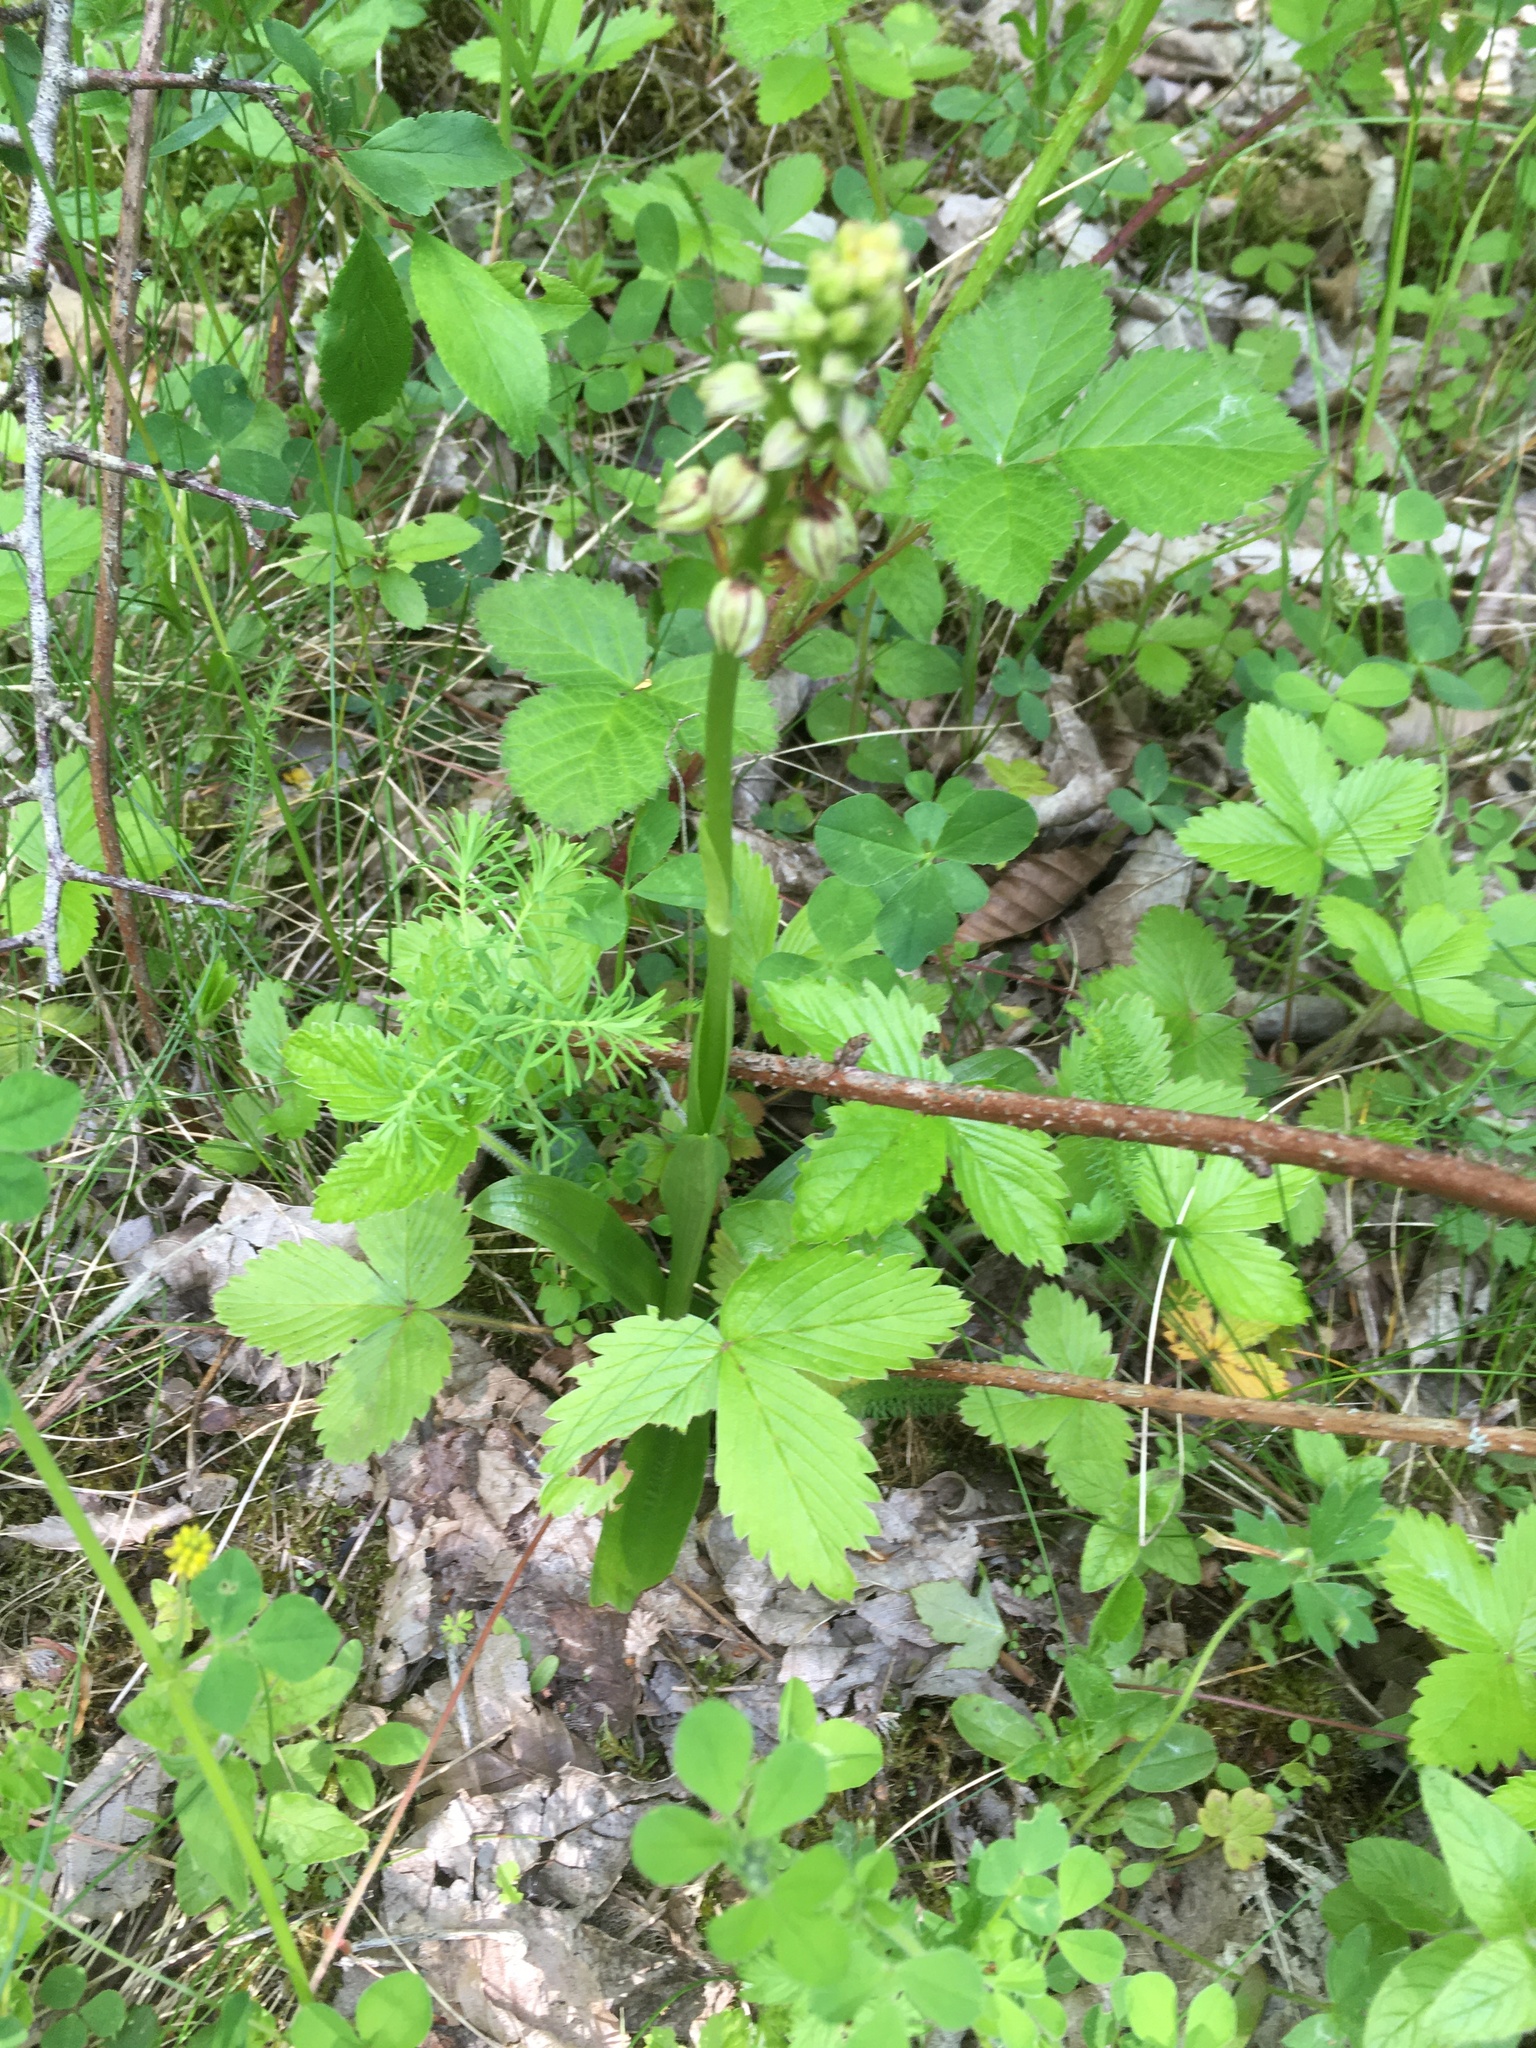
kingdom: Plantae
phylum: Tracheophyta
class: Liliopsida
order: Asparagales
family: Orchidaceae
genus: Orchis
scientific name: Orchis anthropophora
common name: Man orchid
